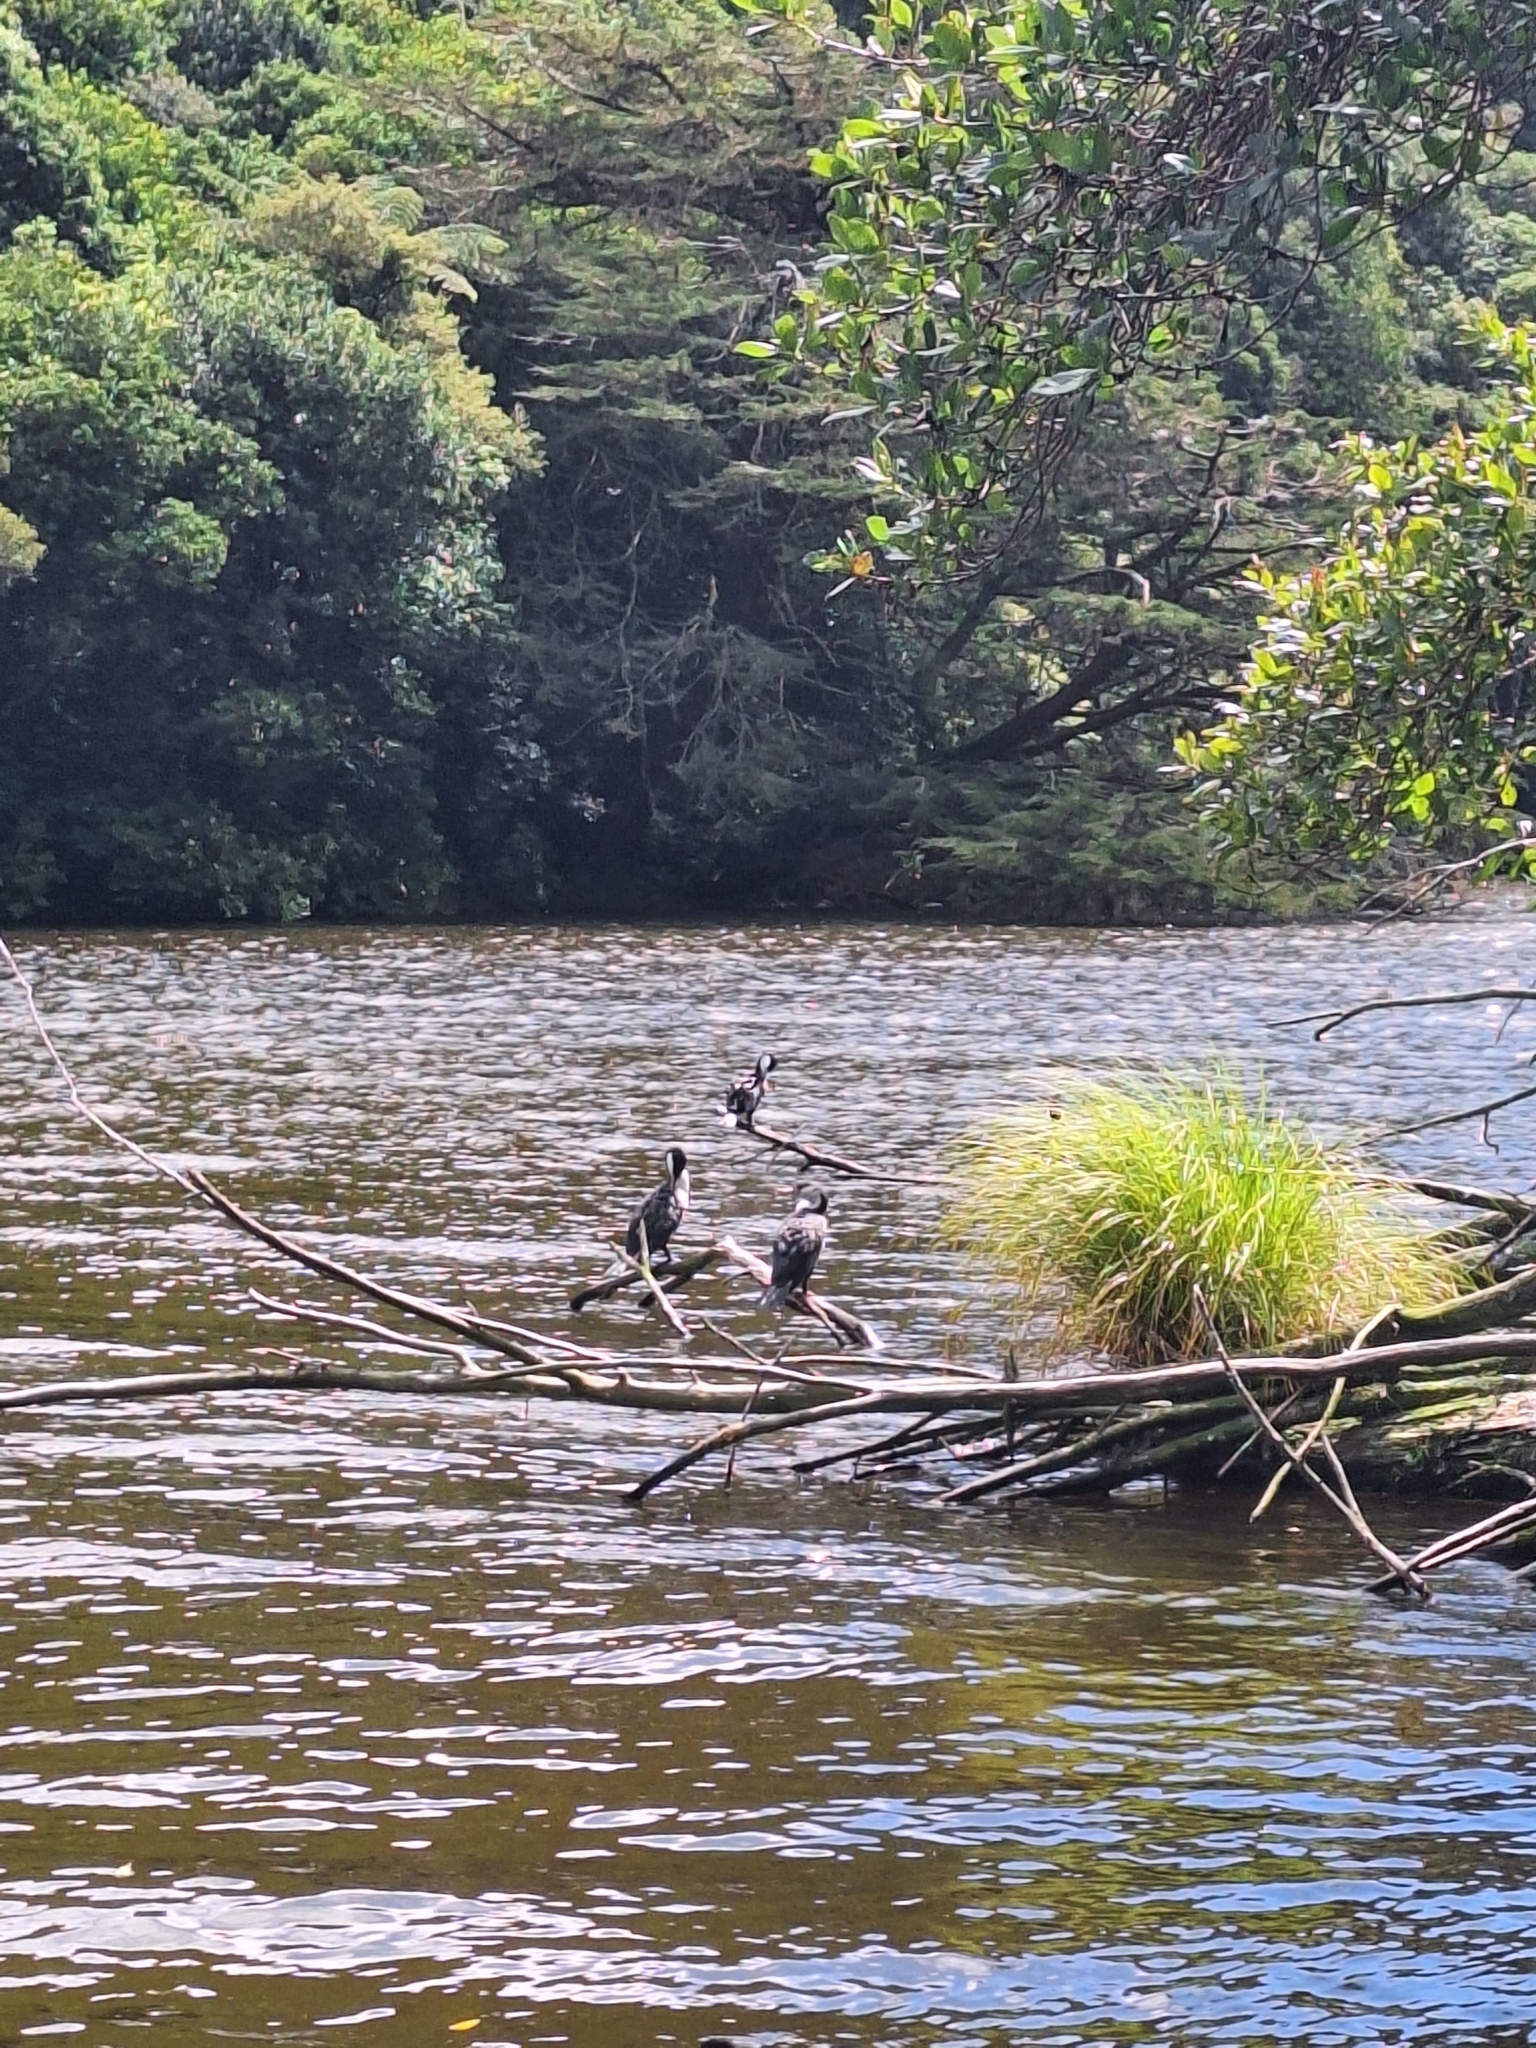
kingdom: Animalia
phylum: Chordata
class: Aves
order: Suliformes
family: Phalacrocoracidae
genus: Phalacrocorax
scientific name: Phalacrocorax varius
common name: Pied cormorant
